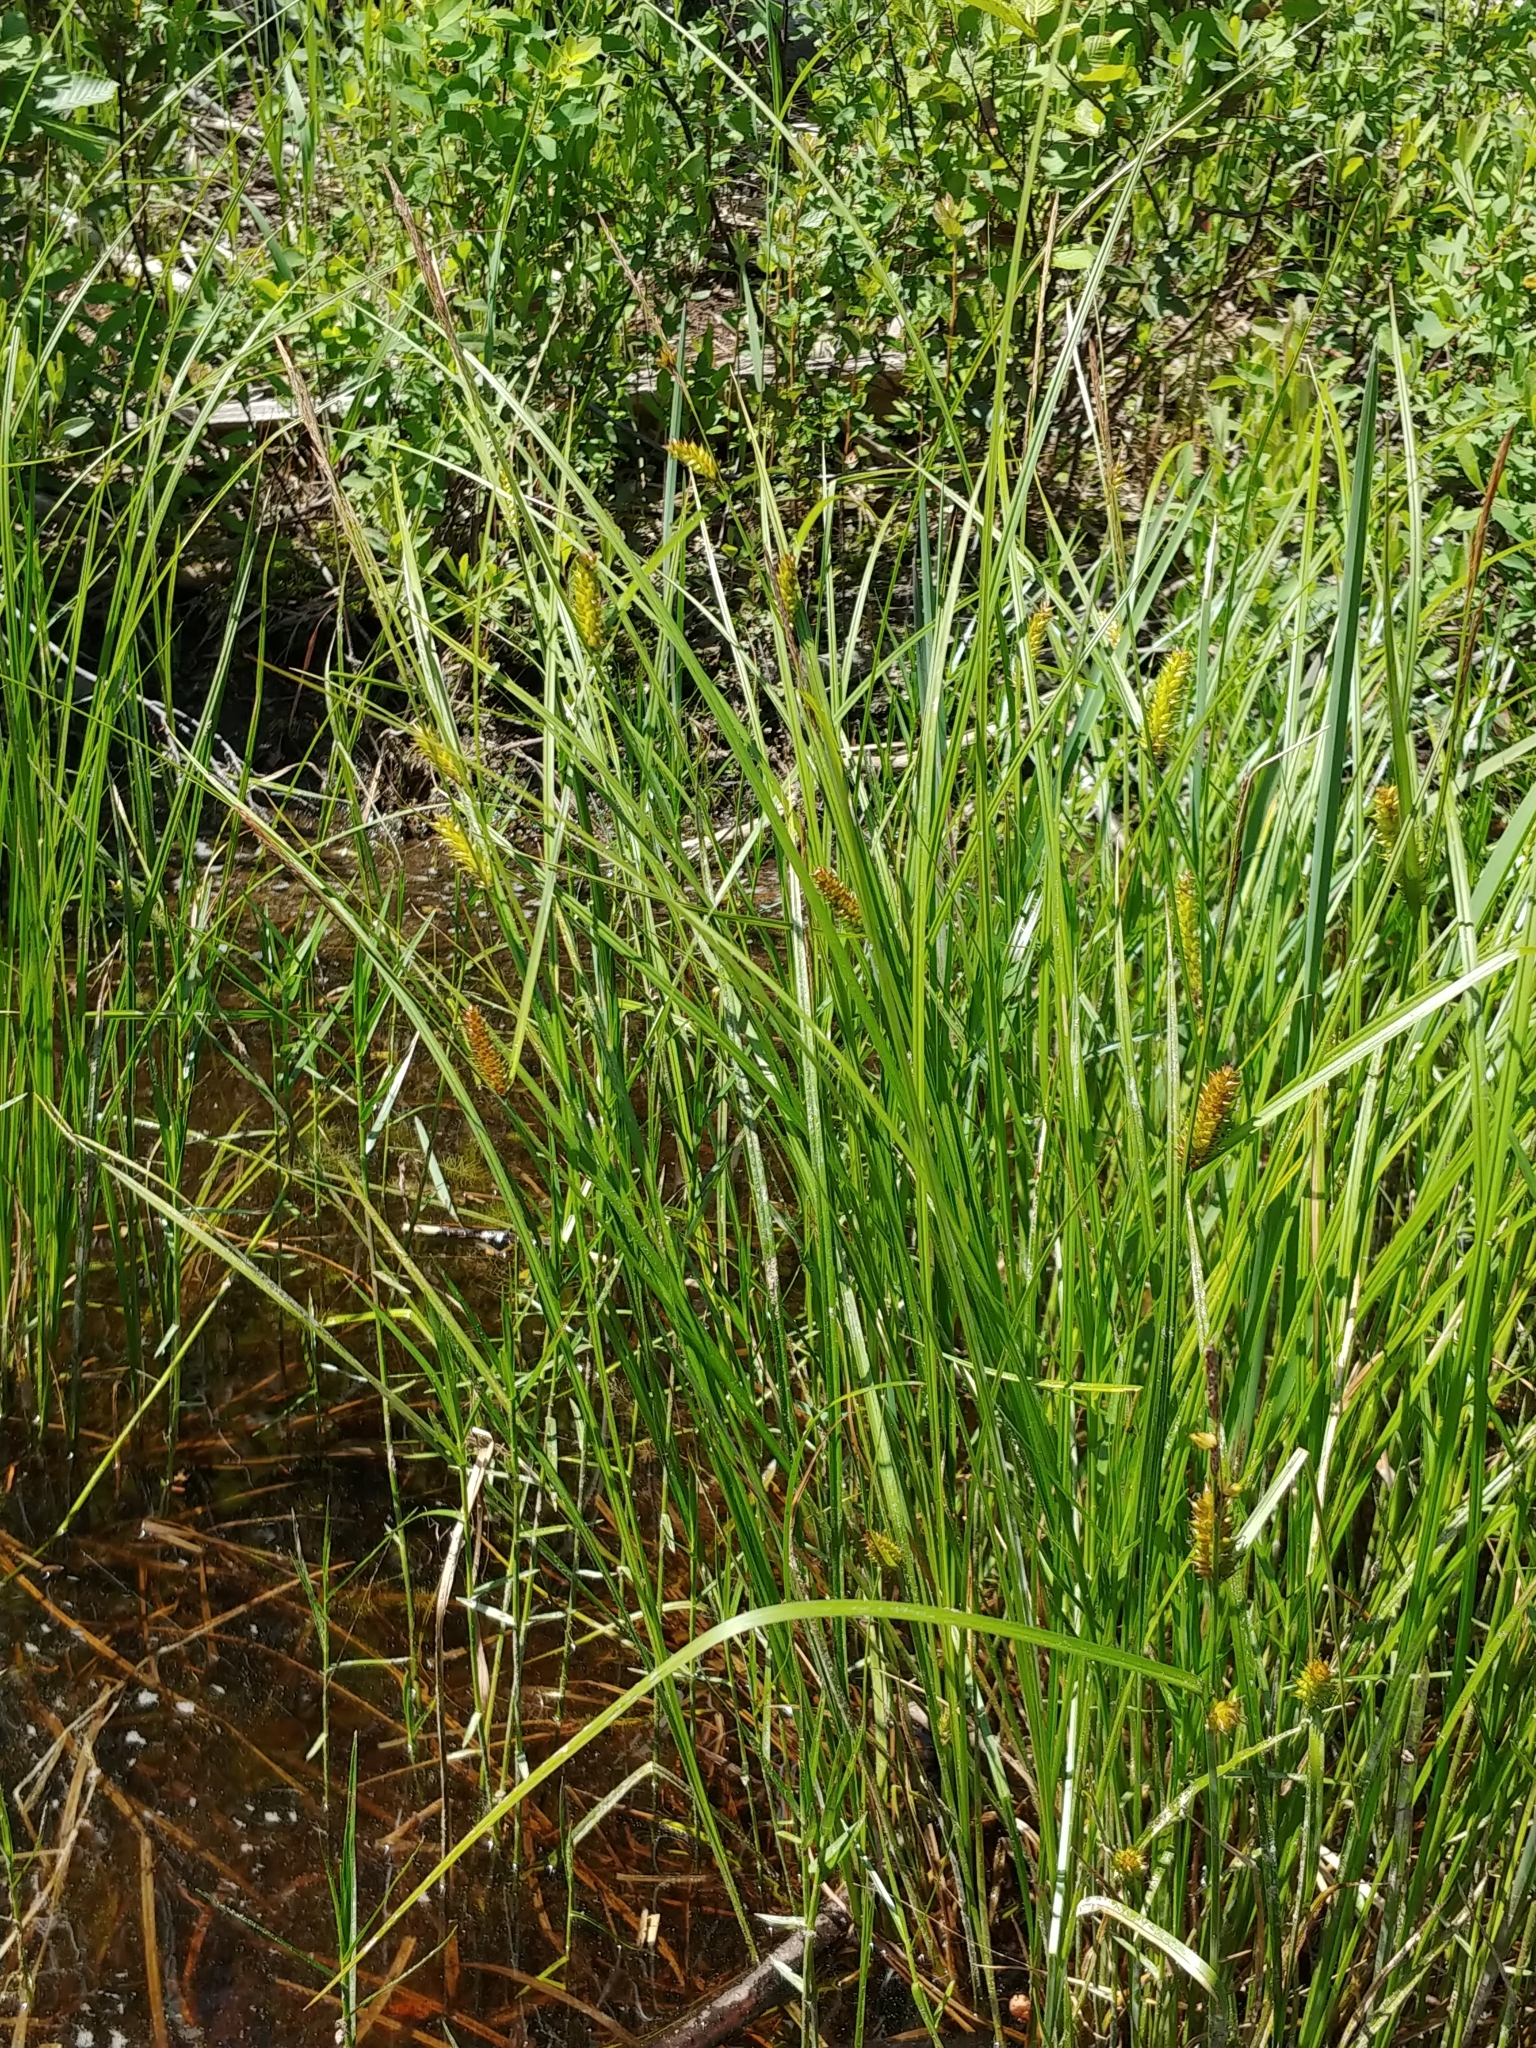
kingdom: Plantae
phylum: Tracheophyta
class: Liliopsida
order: Poales
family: Cyperaceae
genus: Carex
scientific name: Carex utriculata
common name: Beaked sedge
